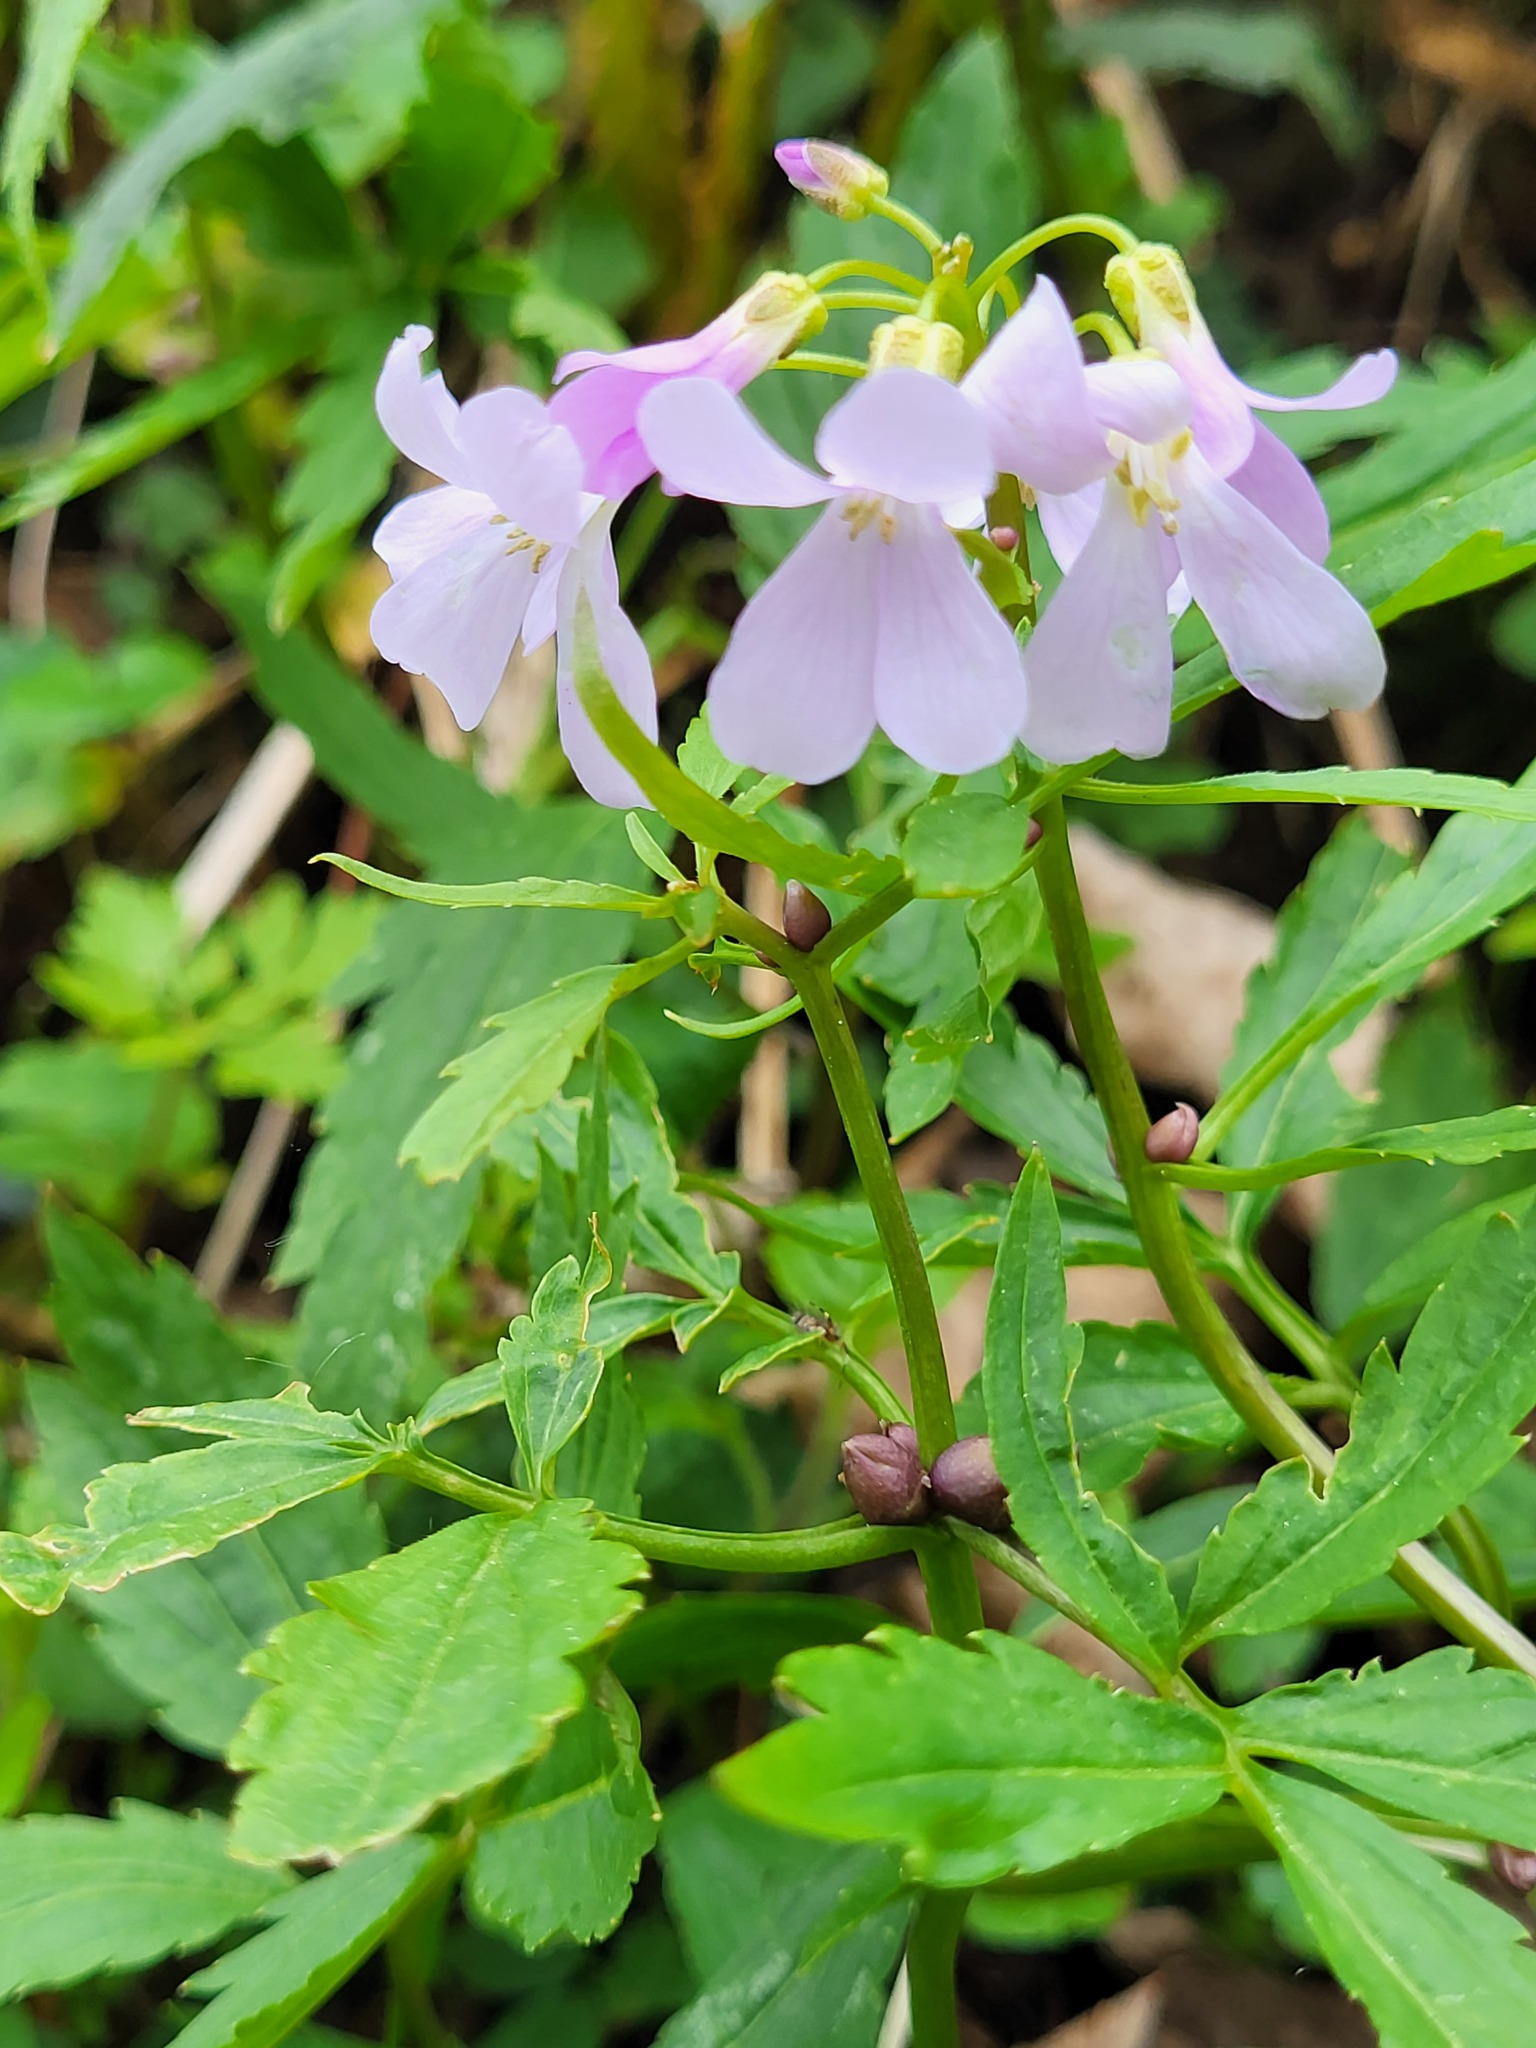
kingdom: Plantae
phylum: Tracheophyta
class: Magnoliopsida
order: Brassicales
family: Brassicaceae
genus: Cardamine
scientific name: Cardamine bulbifera
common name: Coralroot bittercress
